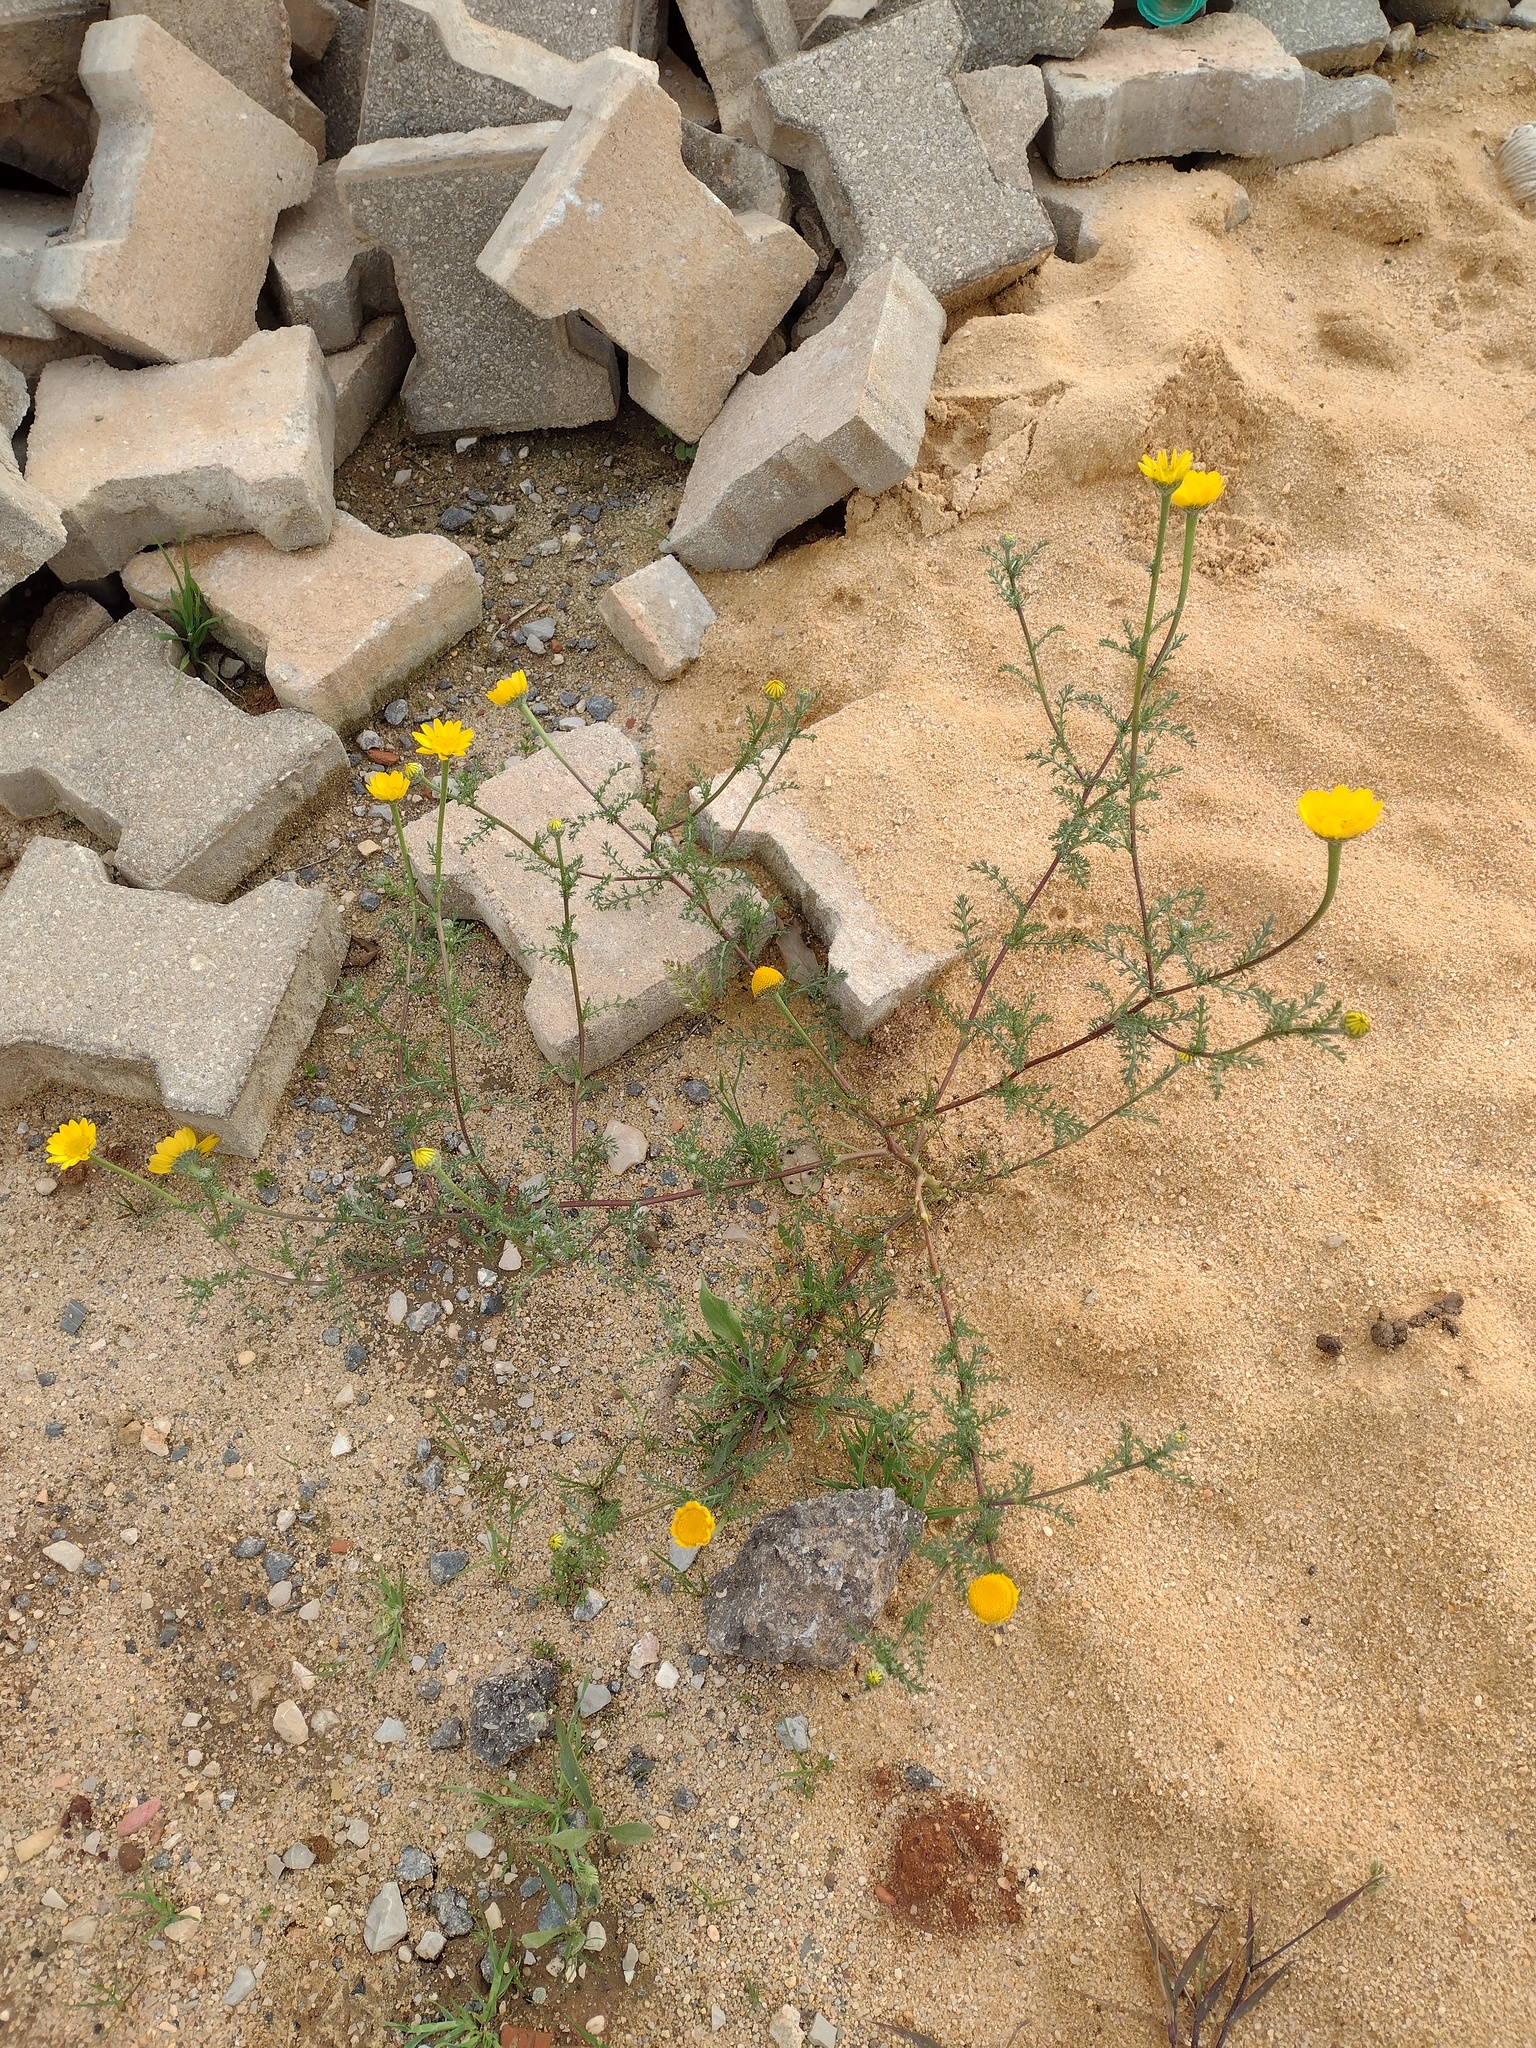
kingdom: Plantae
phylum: Tracheophyta
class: Magnoliopsida
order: Asterales
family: Asteraceae
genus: Anacyclus
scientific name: Anacyclus radiatus
